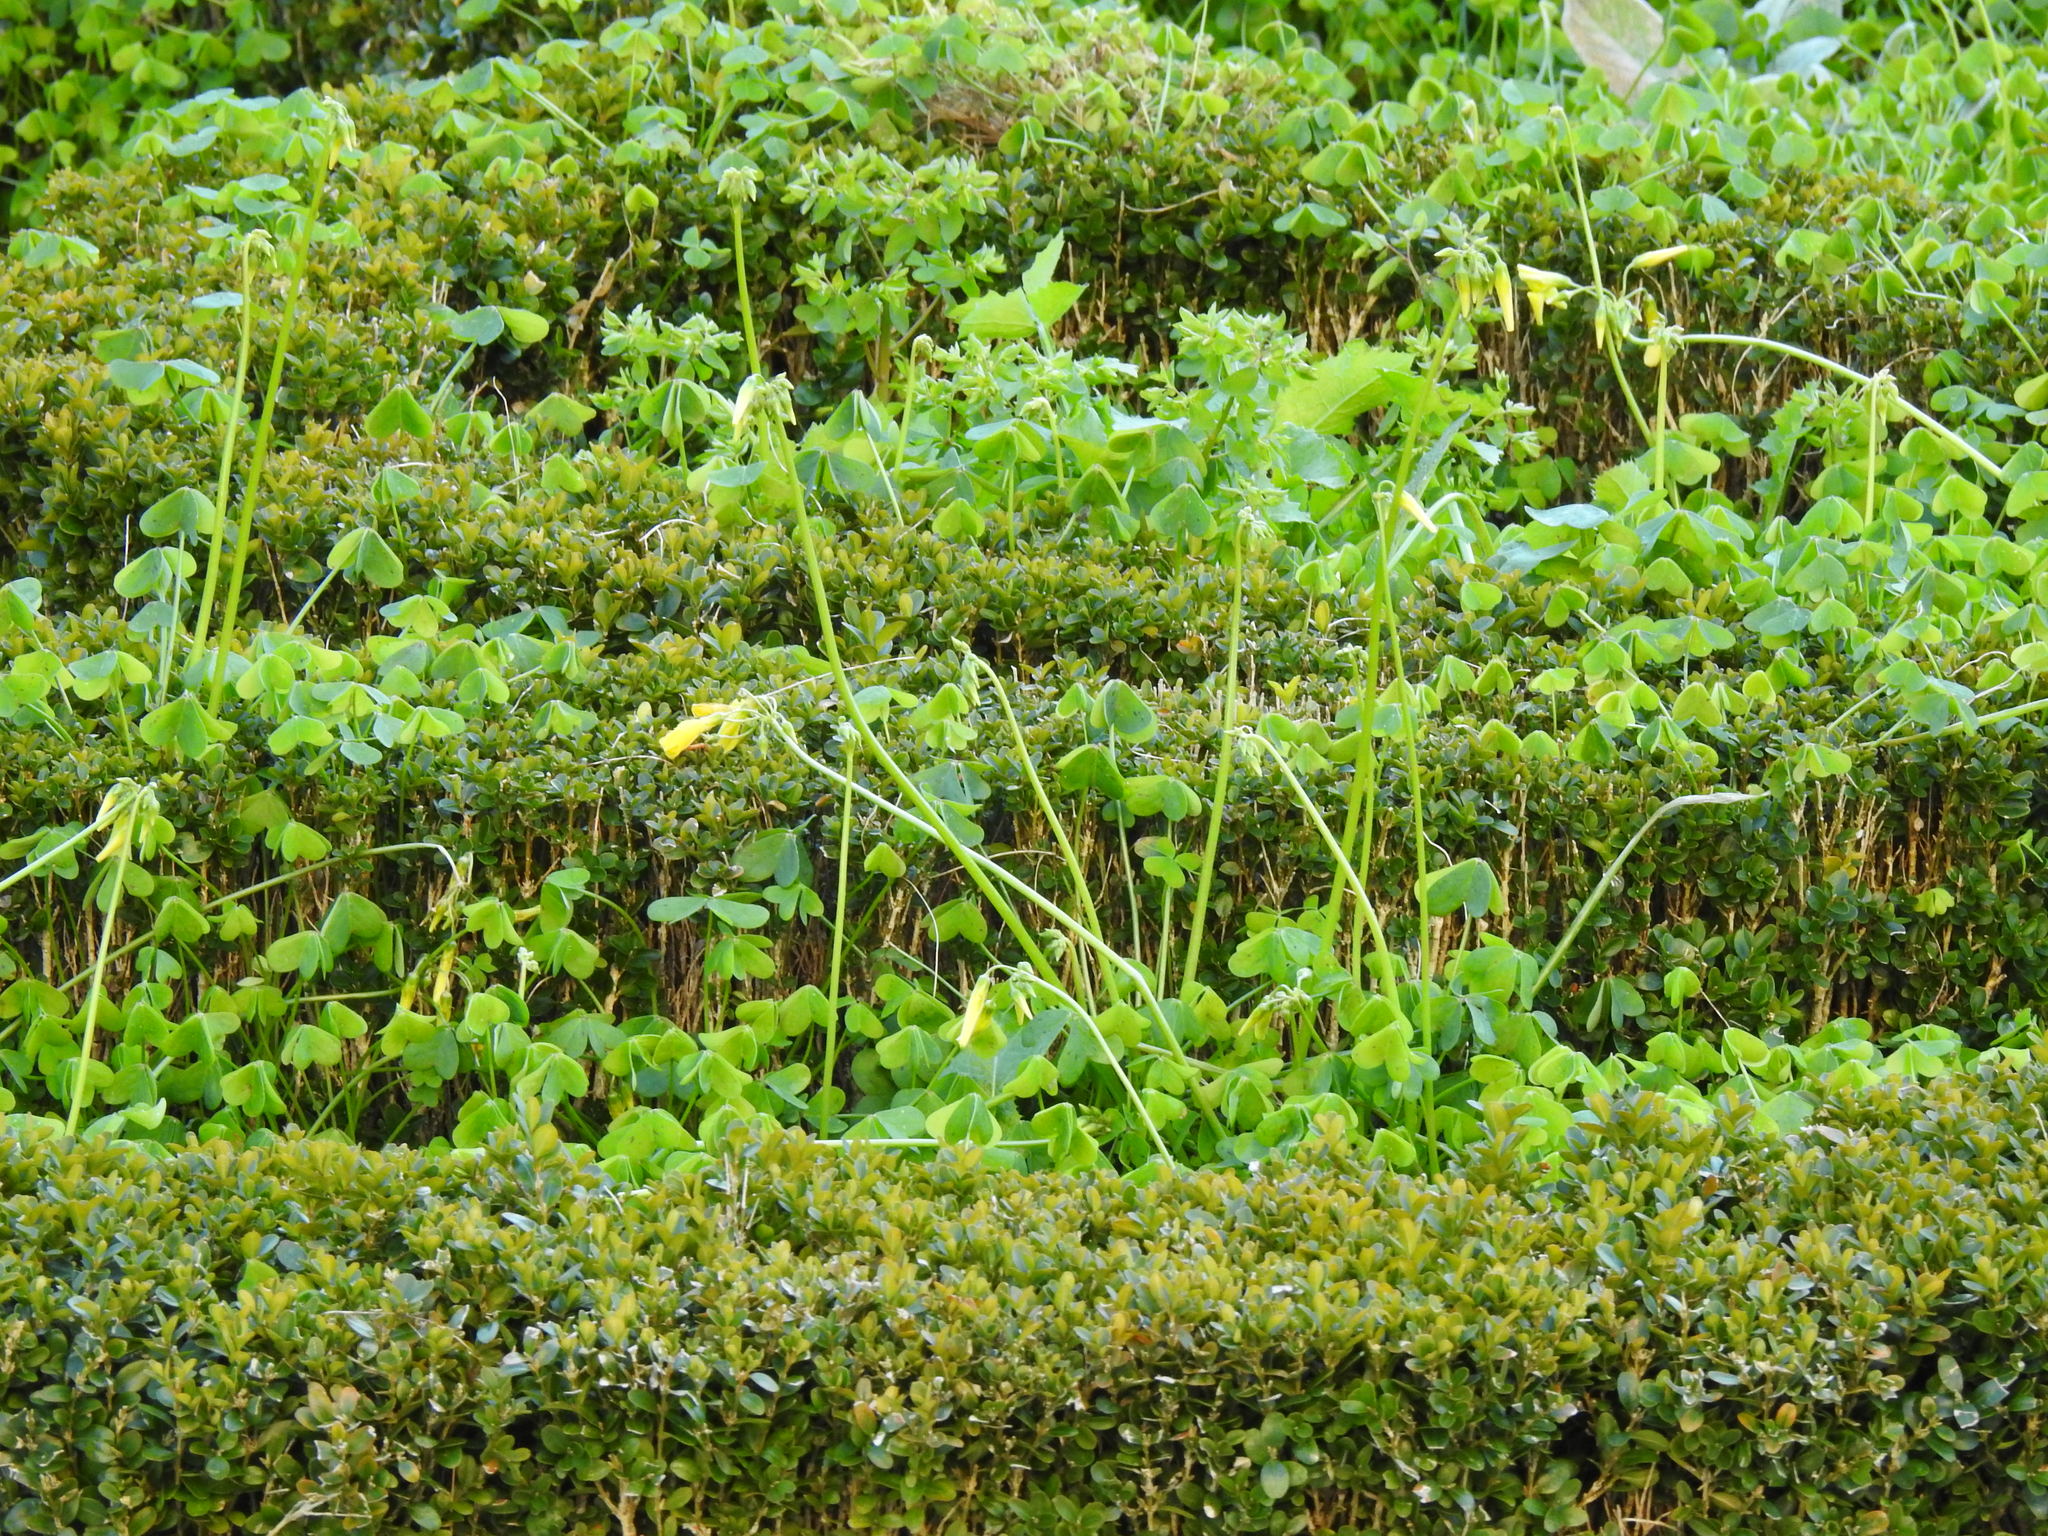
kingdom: Plantae
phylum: Tracheophyta
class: Magnoliopsida
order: Oxalidales
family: Oxalidaceae
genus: Oxalis
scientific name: Oxalis pes-caprae
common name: Bermuda-buttercup
